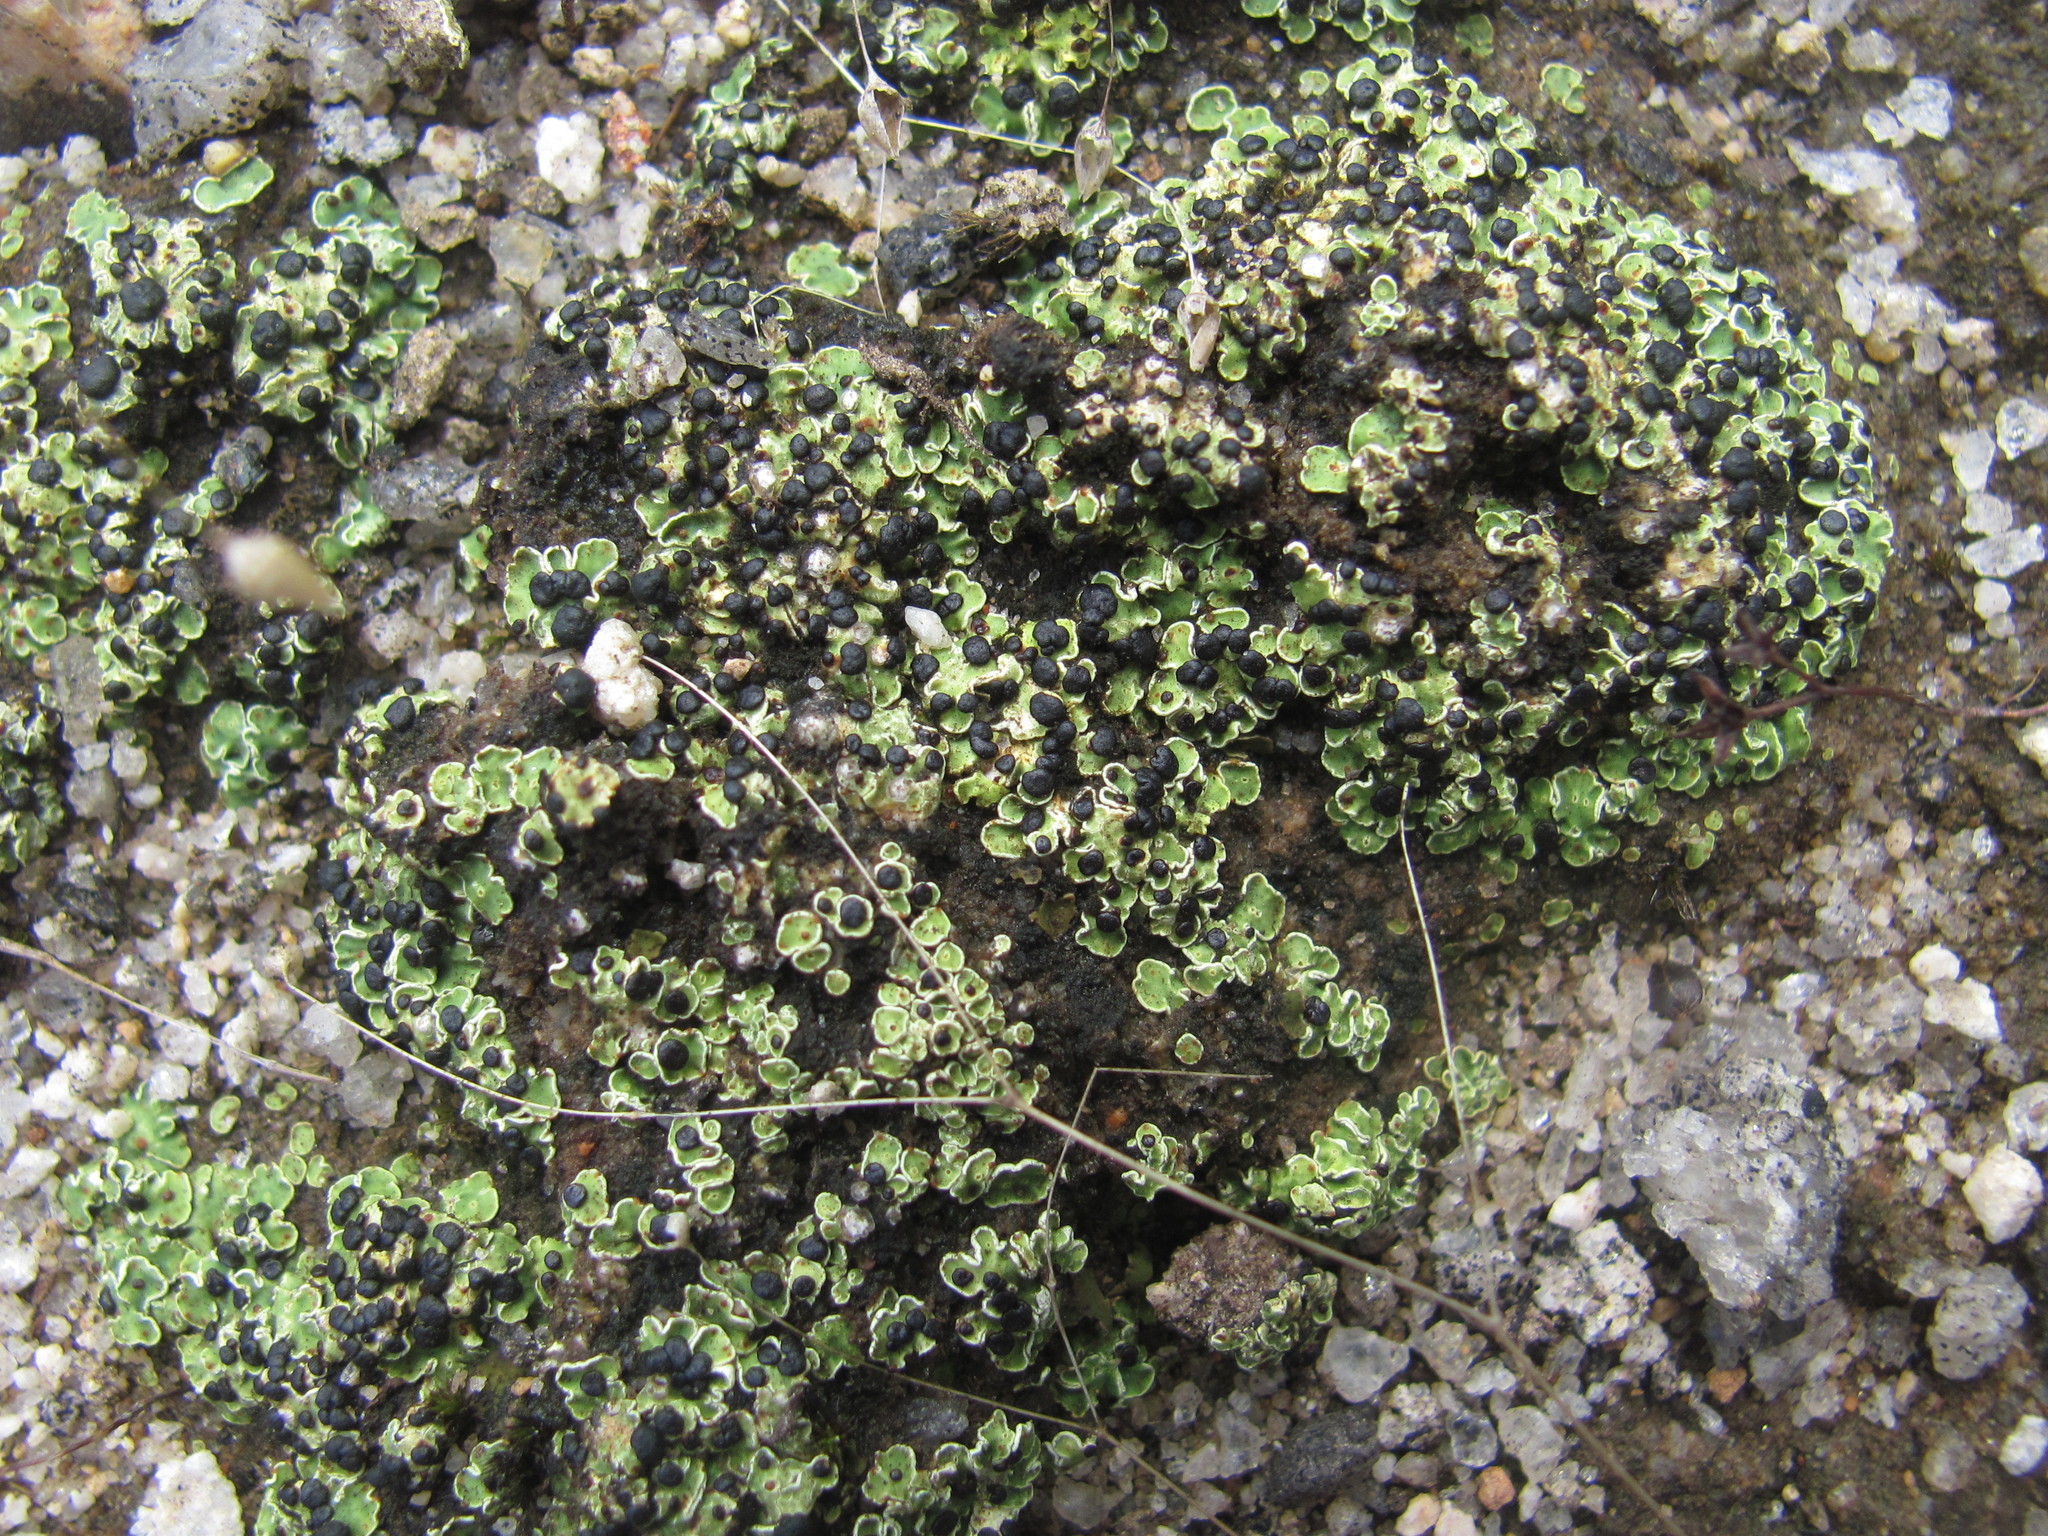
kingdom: Fungi
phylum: Ascomycota
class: Lecanoromycetes
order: Lecanorales
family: Psoraceae
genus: Psora
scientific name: Psora icterica
